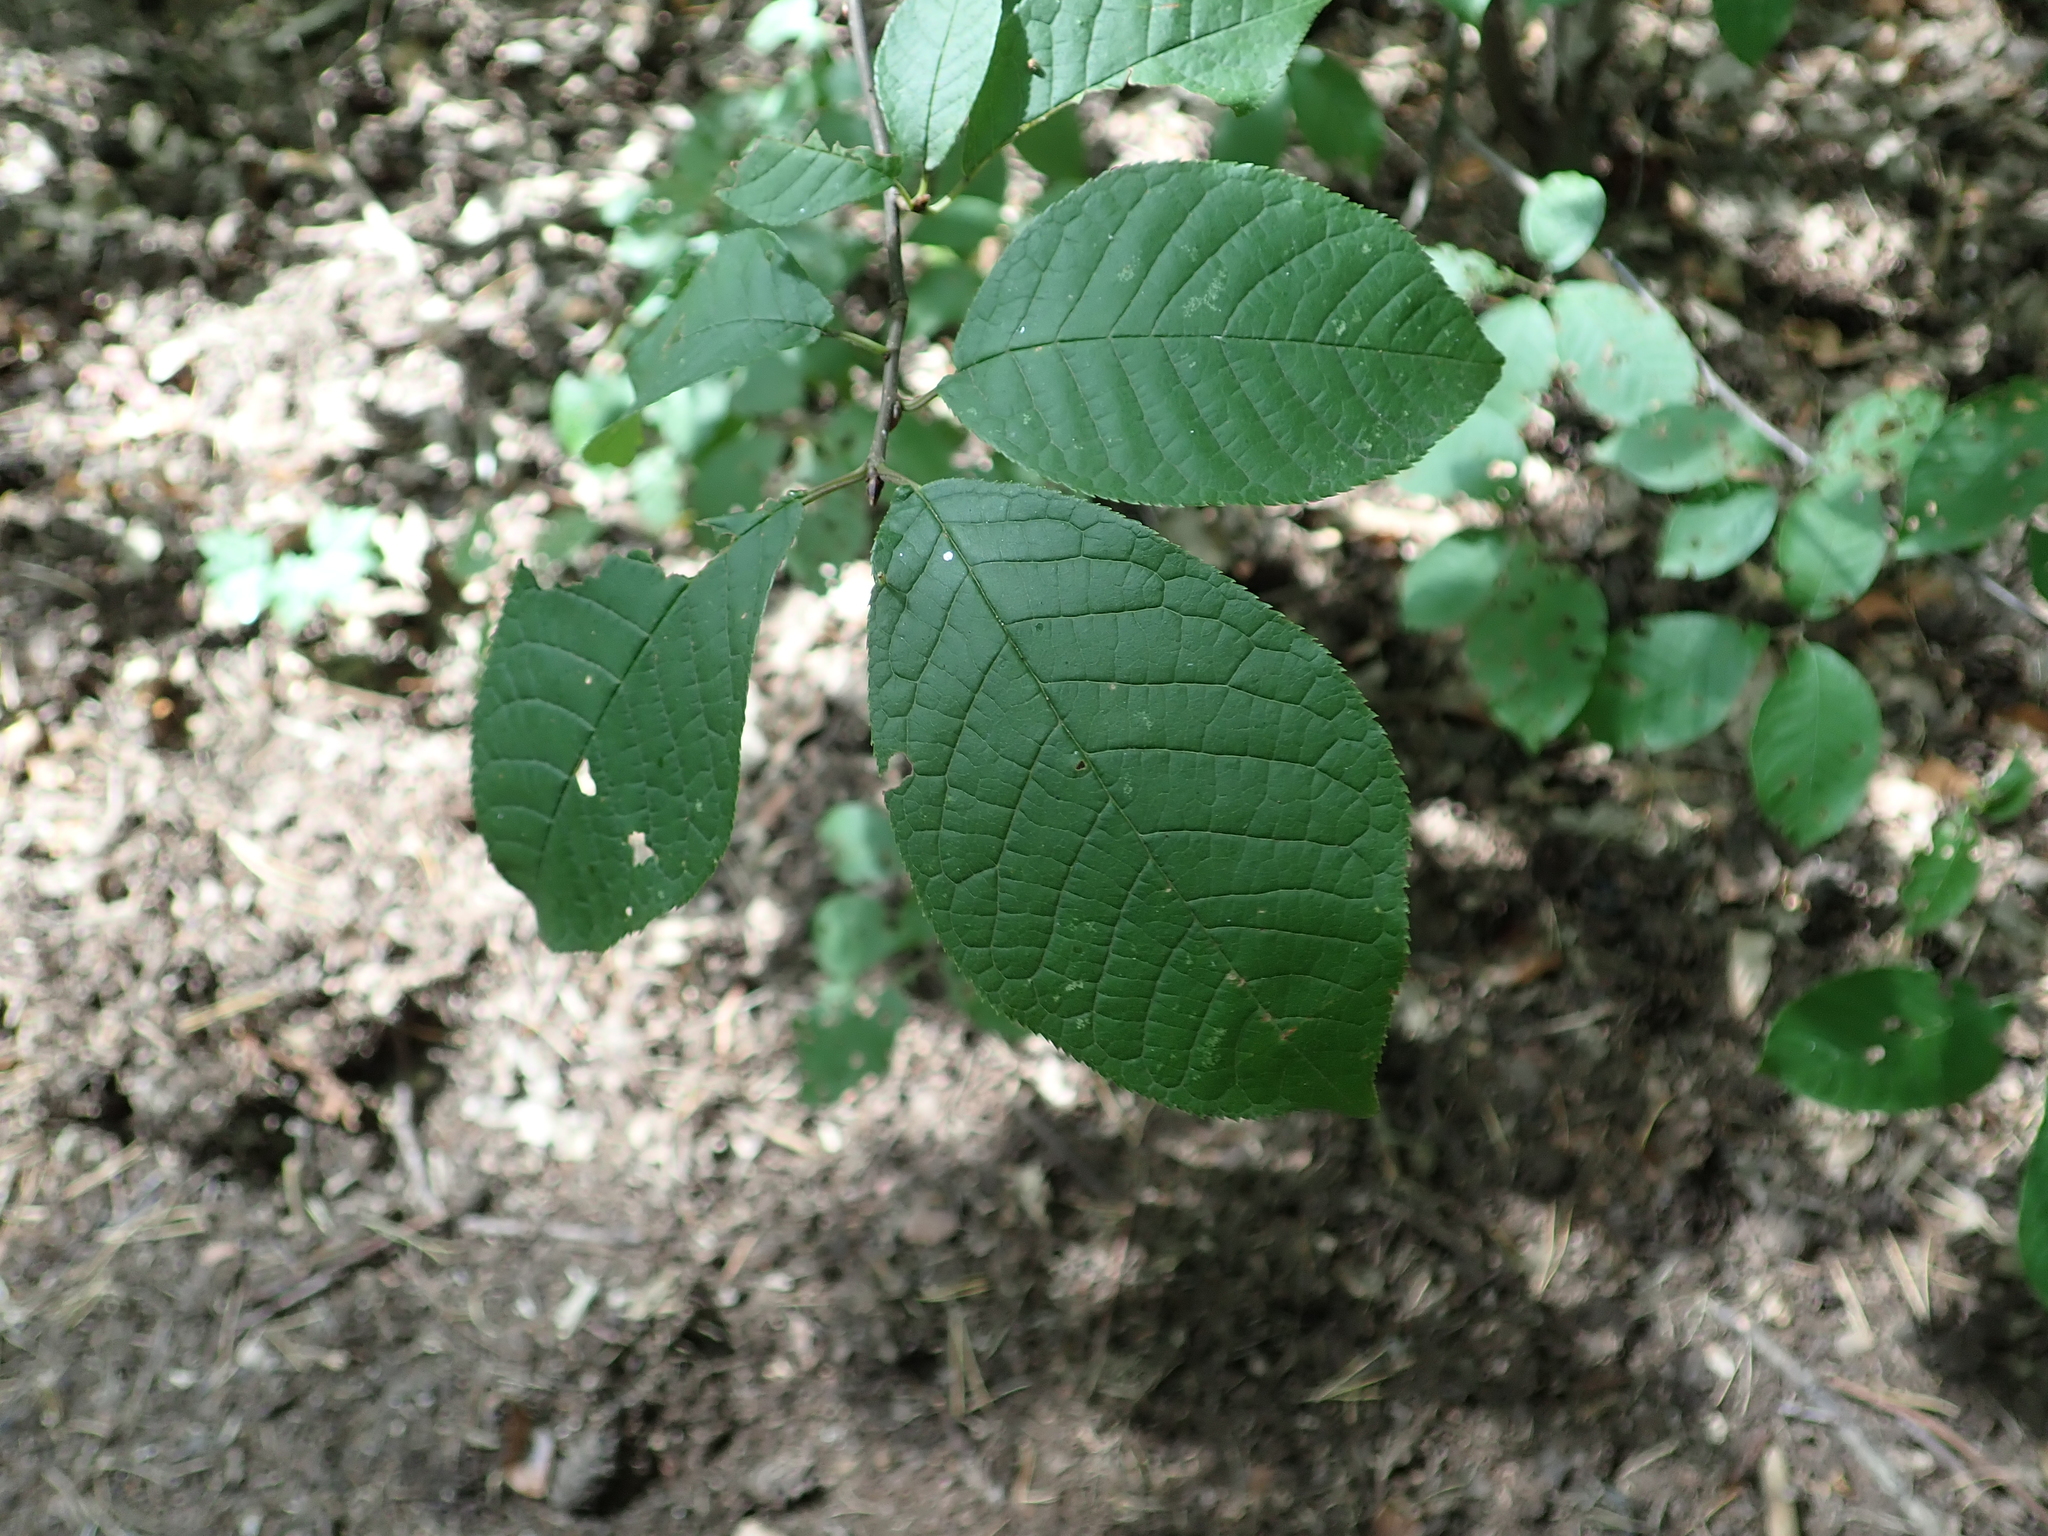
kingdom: Plantae
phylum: Tracheophyta
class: Magnoliopsida
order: Rosales
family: Rosaceae
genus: Prunus
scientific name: Prunus padus
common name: Bird cherry
